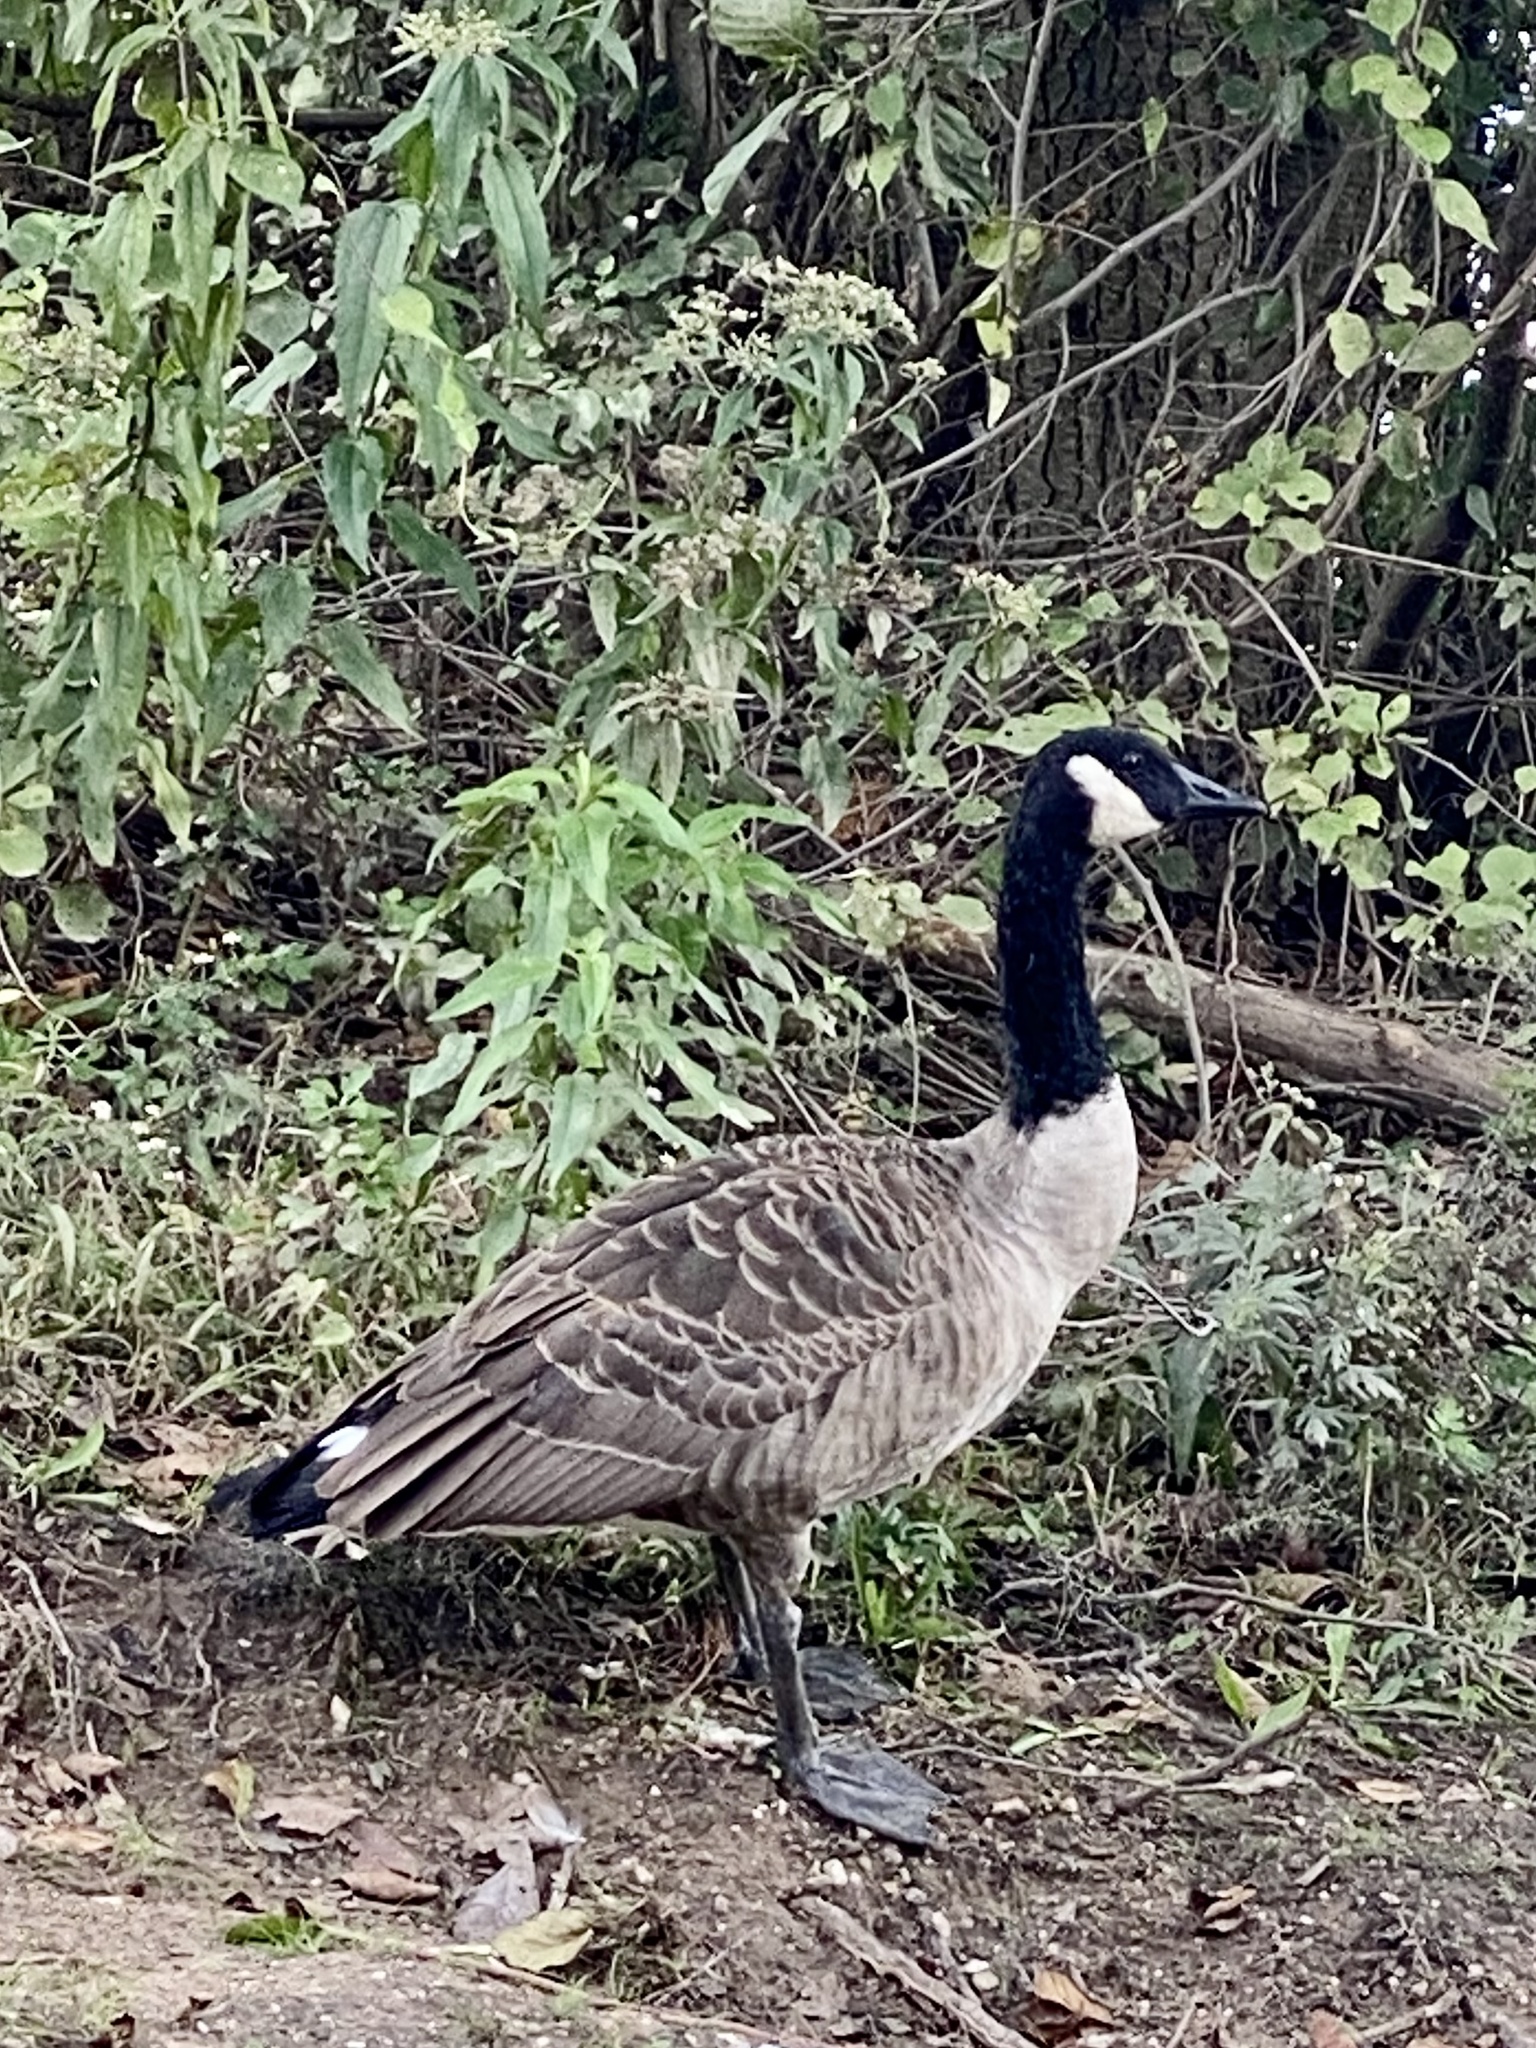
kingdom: Animalia
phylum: Chordata
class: Aves
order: Anseriformes
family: Anatidae
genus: Branta
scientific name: Branta canadensis
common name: Canada goose
